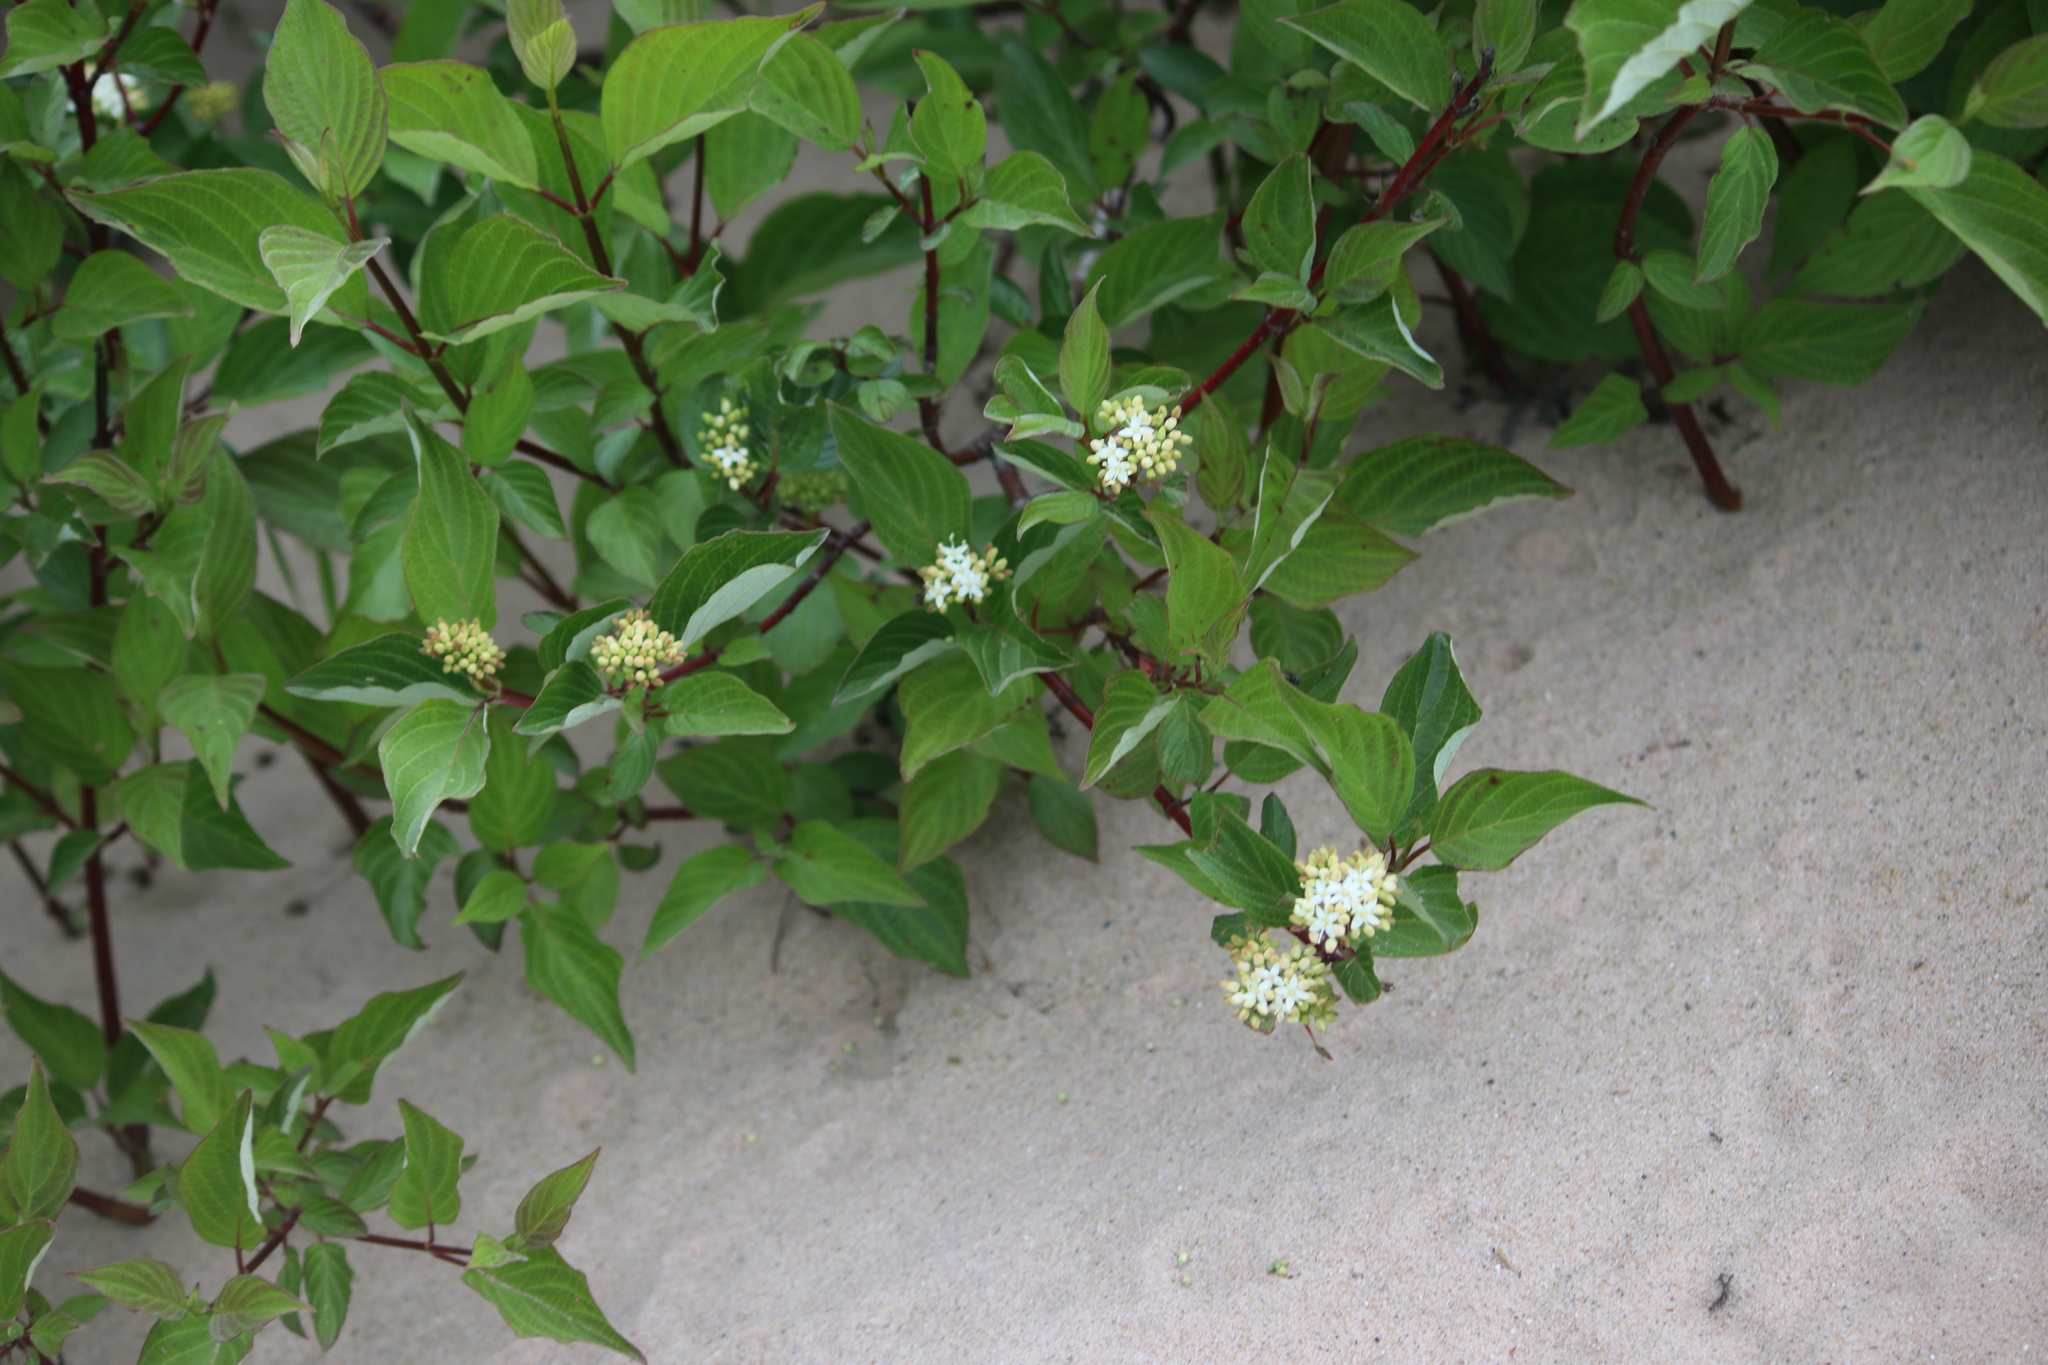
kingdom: Plantae
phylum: Tracheophyta
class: Magnoliopsida
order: Cornales
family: Cornaceae
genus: Cornus
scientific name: Cornus sericea
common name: Red-osier dogwood
